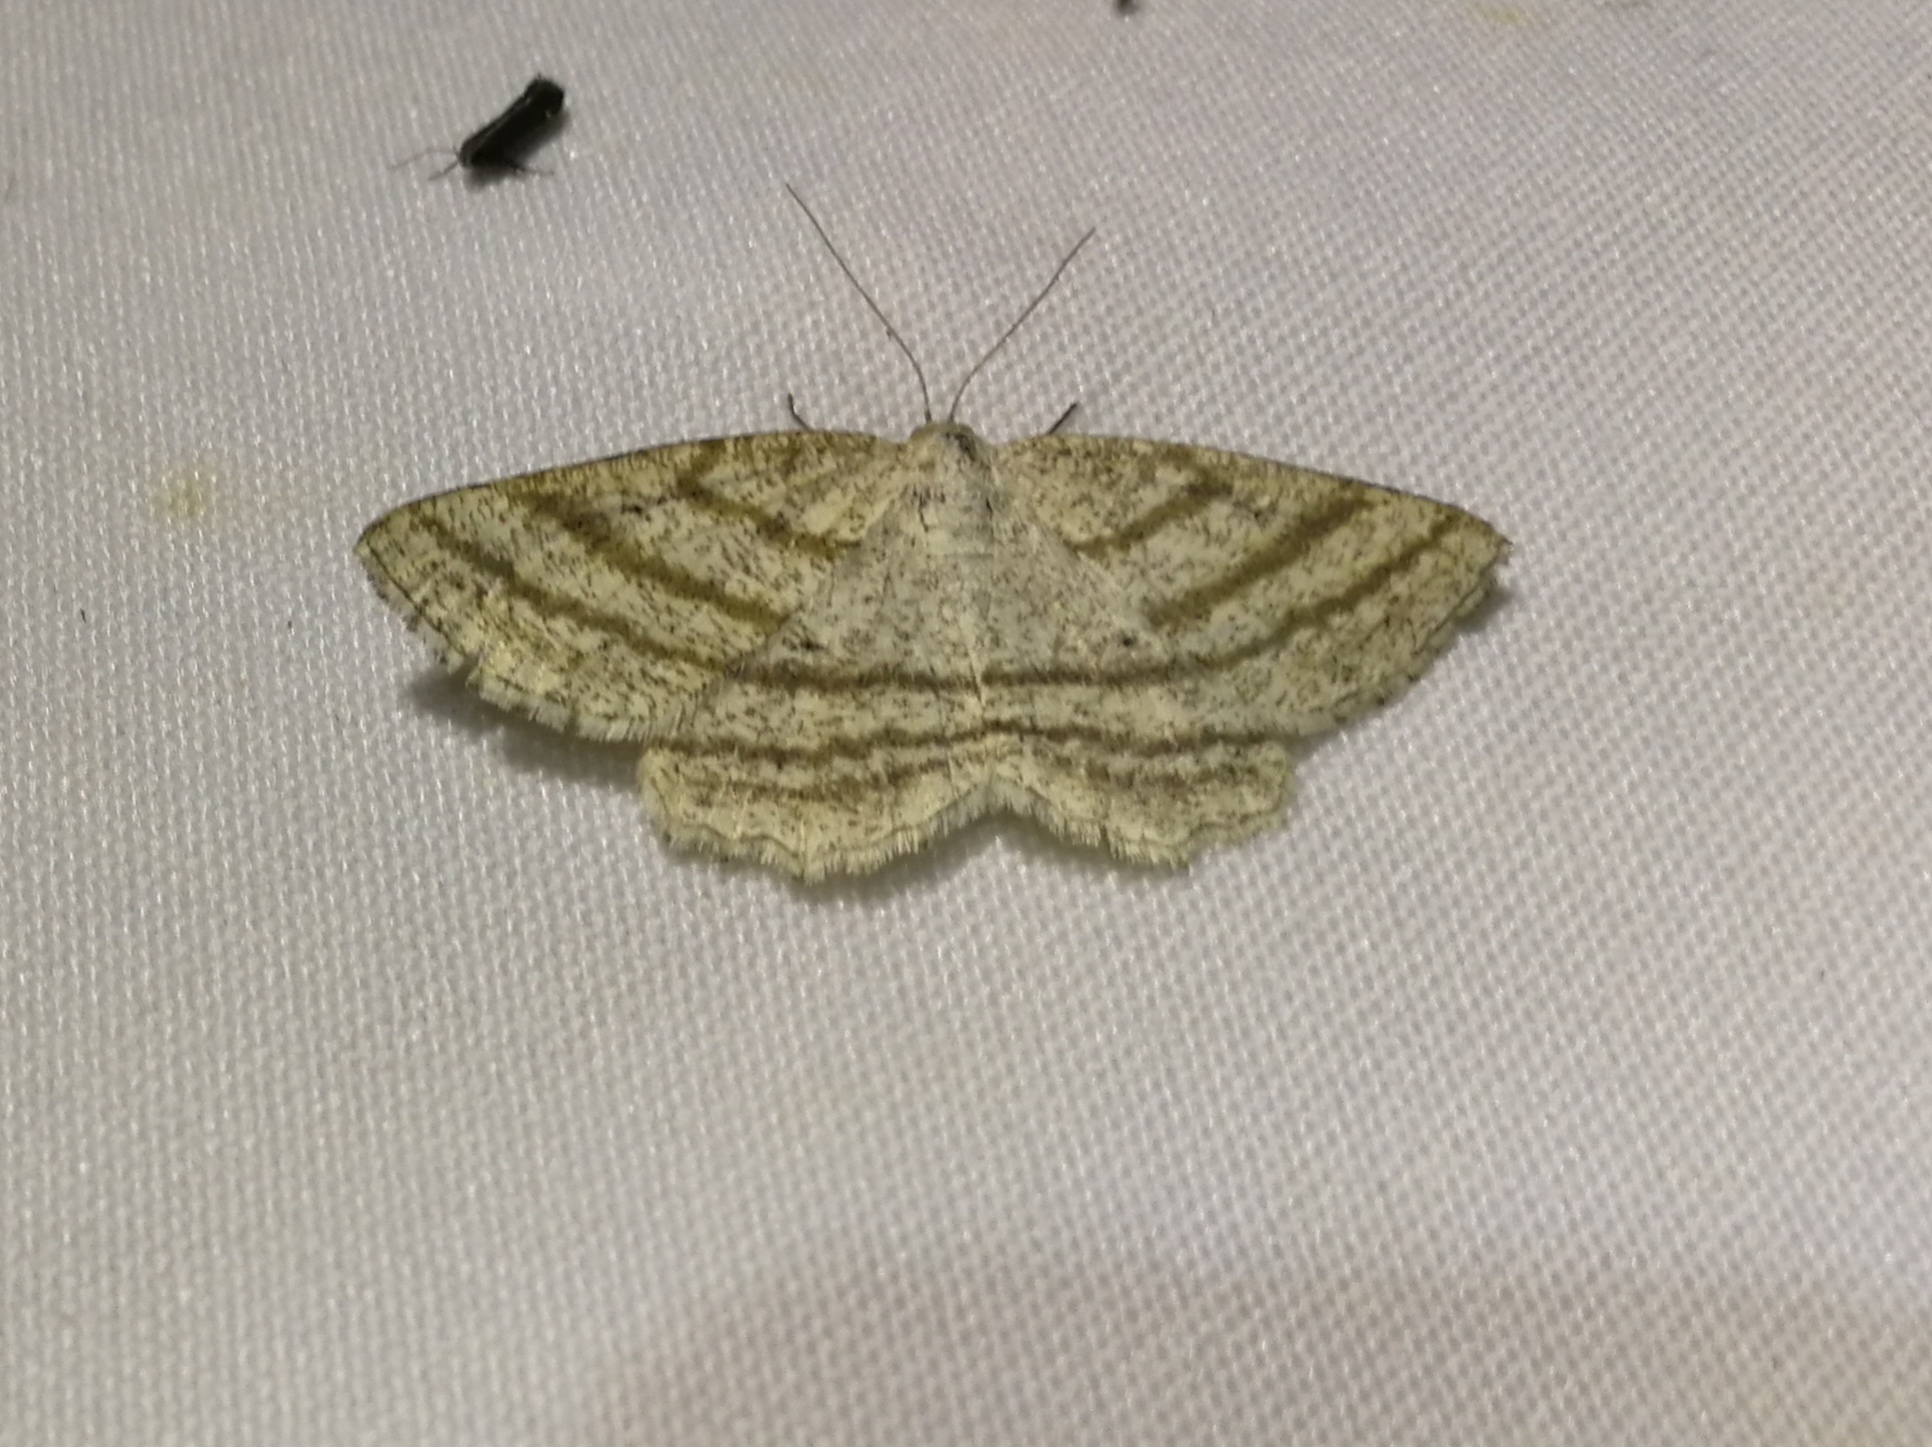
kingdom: Animalia
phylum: Arthropoda
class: Insecta
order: Lepidoptera
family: Geometridae
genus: Perconia
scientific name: Perconia strigillaria
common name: Grass wave
